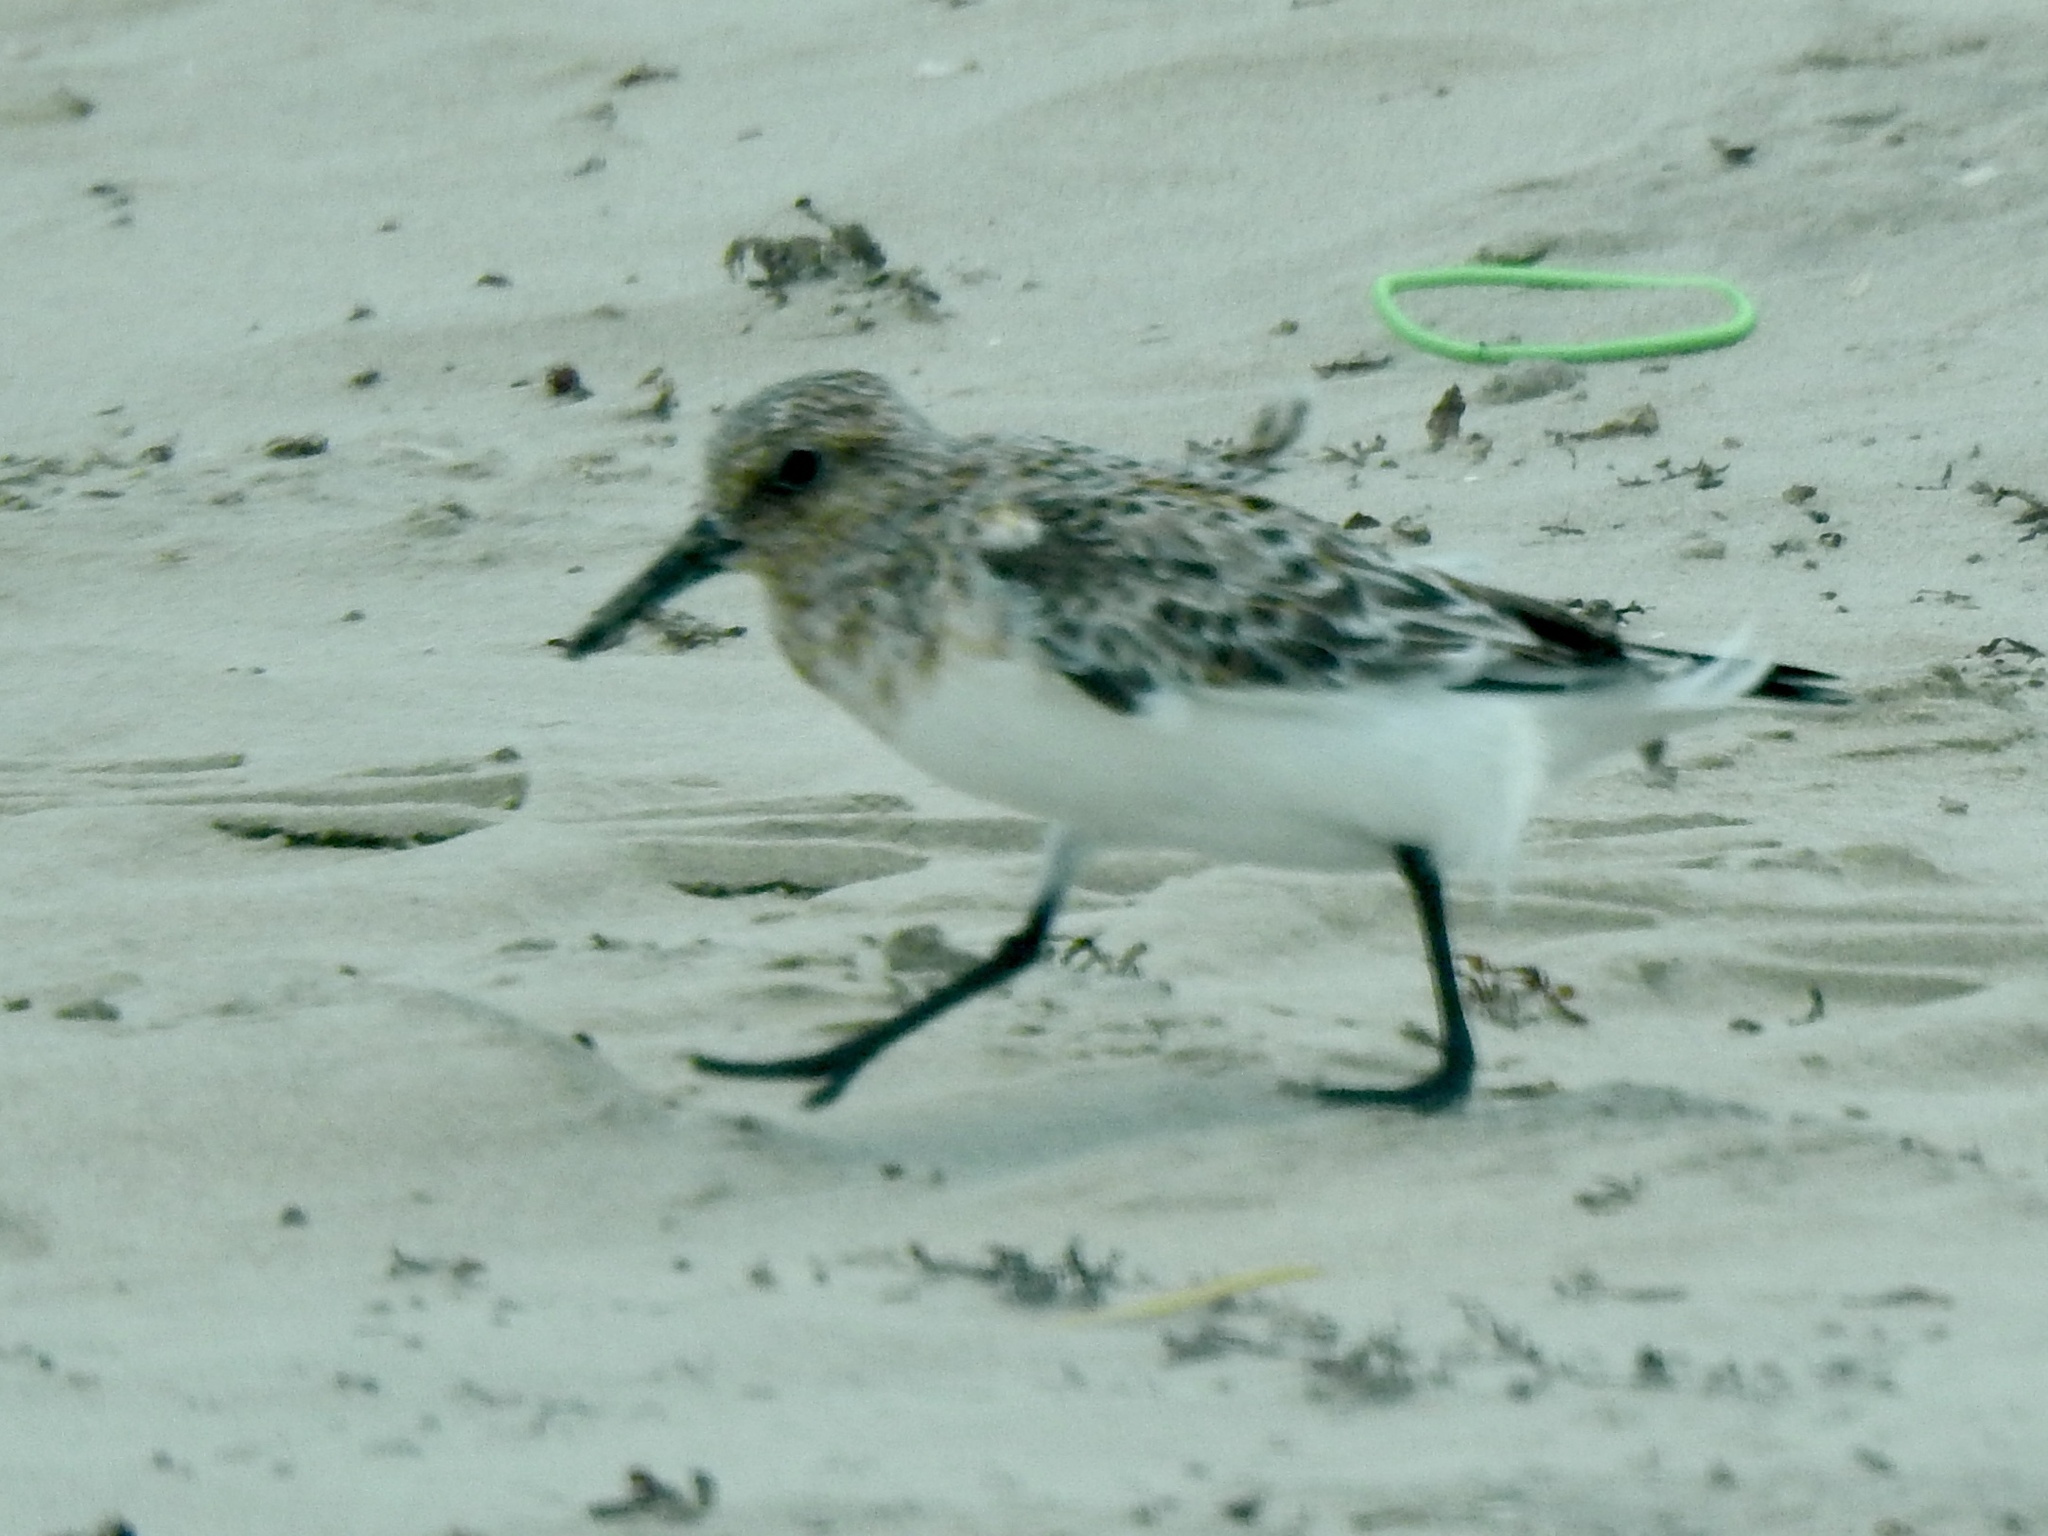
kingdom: Animalia
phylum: Chordata
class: Aves
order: Charadriiformes
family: Scolopacidae
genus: Calidris
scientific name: Calidris alba
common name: Sanderling
